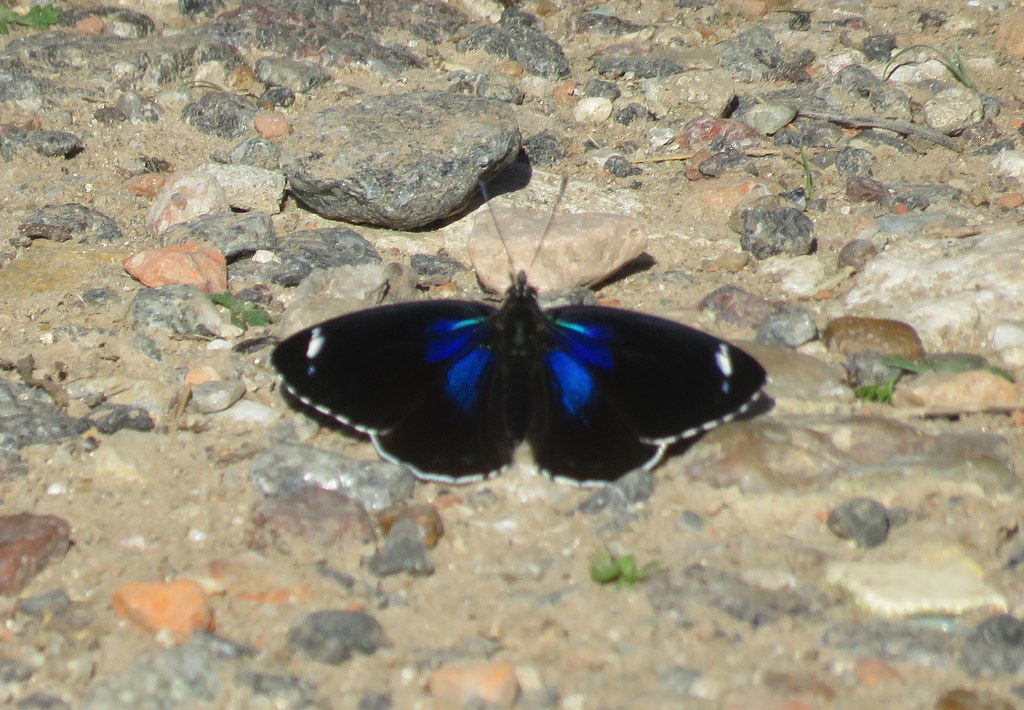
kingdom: Animalia
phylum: Arthropoda
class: Insecta
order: Lepidoptera
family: Nymphalidae
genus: Diaethria
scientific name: Diaethria candrena
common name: Number eighty
